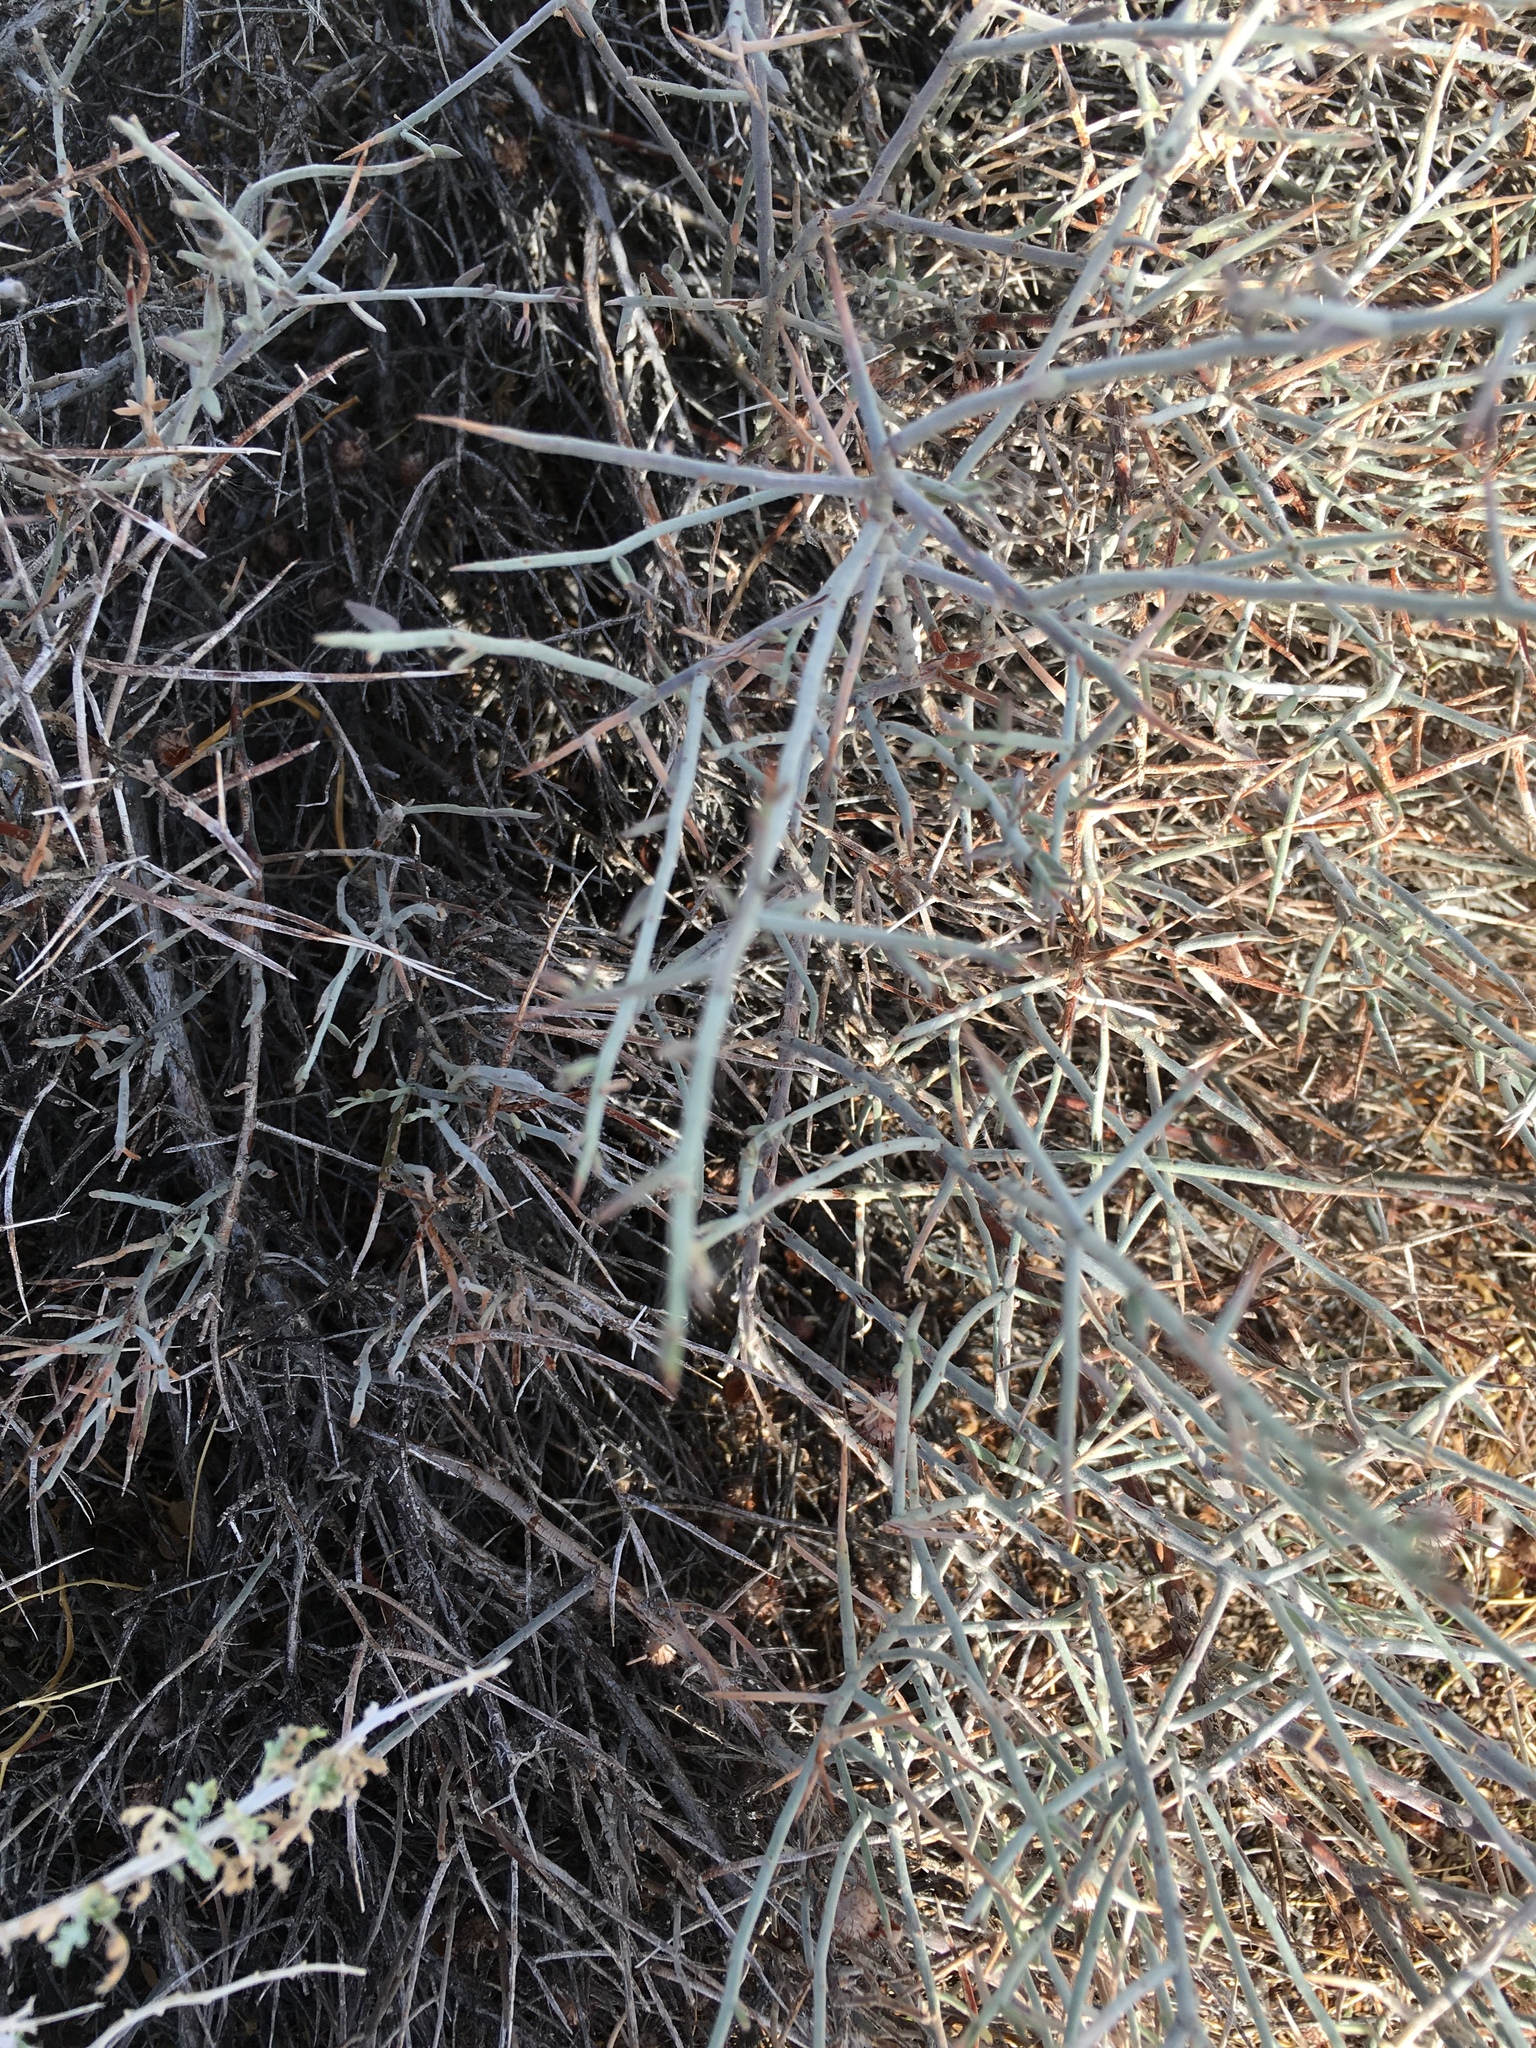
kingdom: Plantae
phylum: Tracheophyta
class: Magnoliopsida
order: Zygophyllales
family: Krameriaceae
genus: Krameria
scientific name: Krameria bicolor
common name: White ratany
